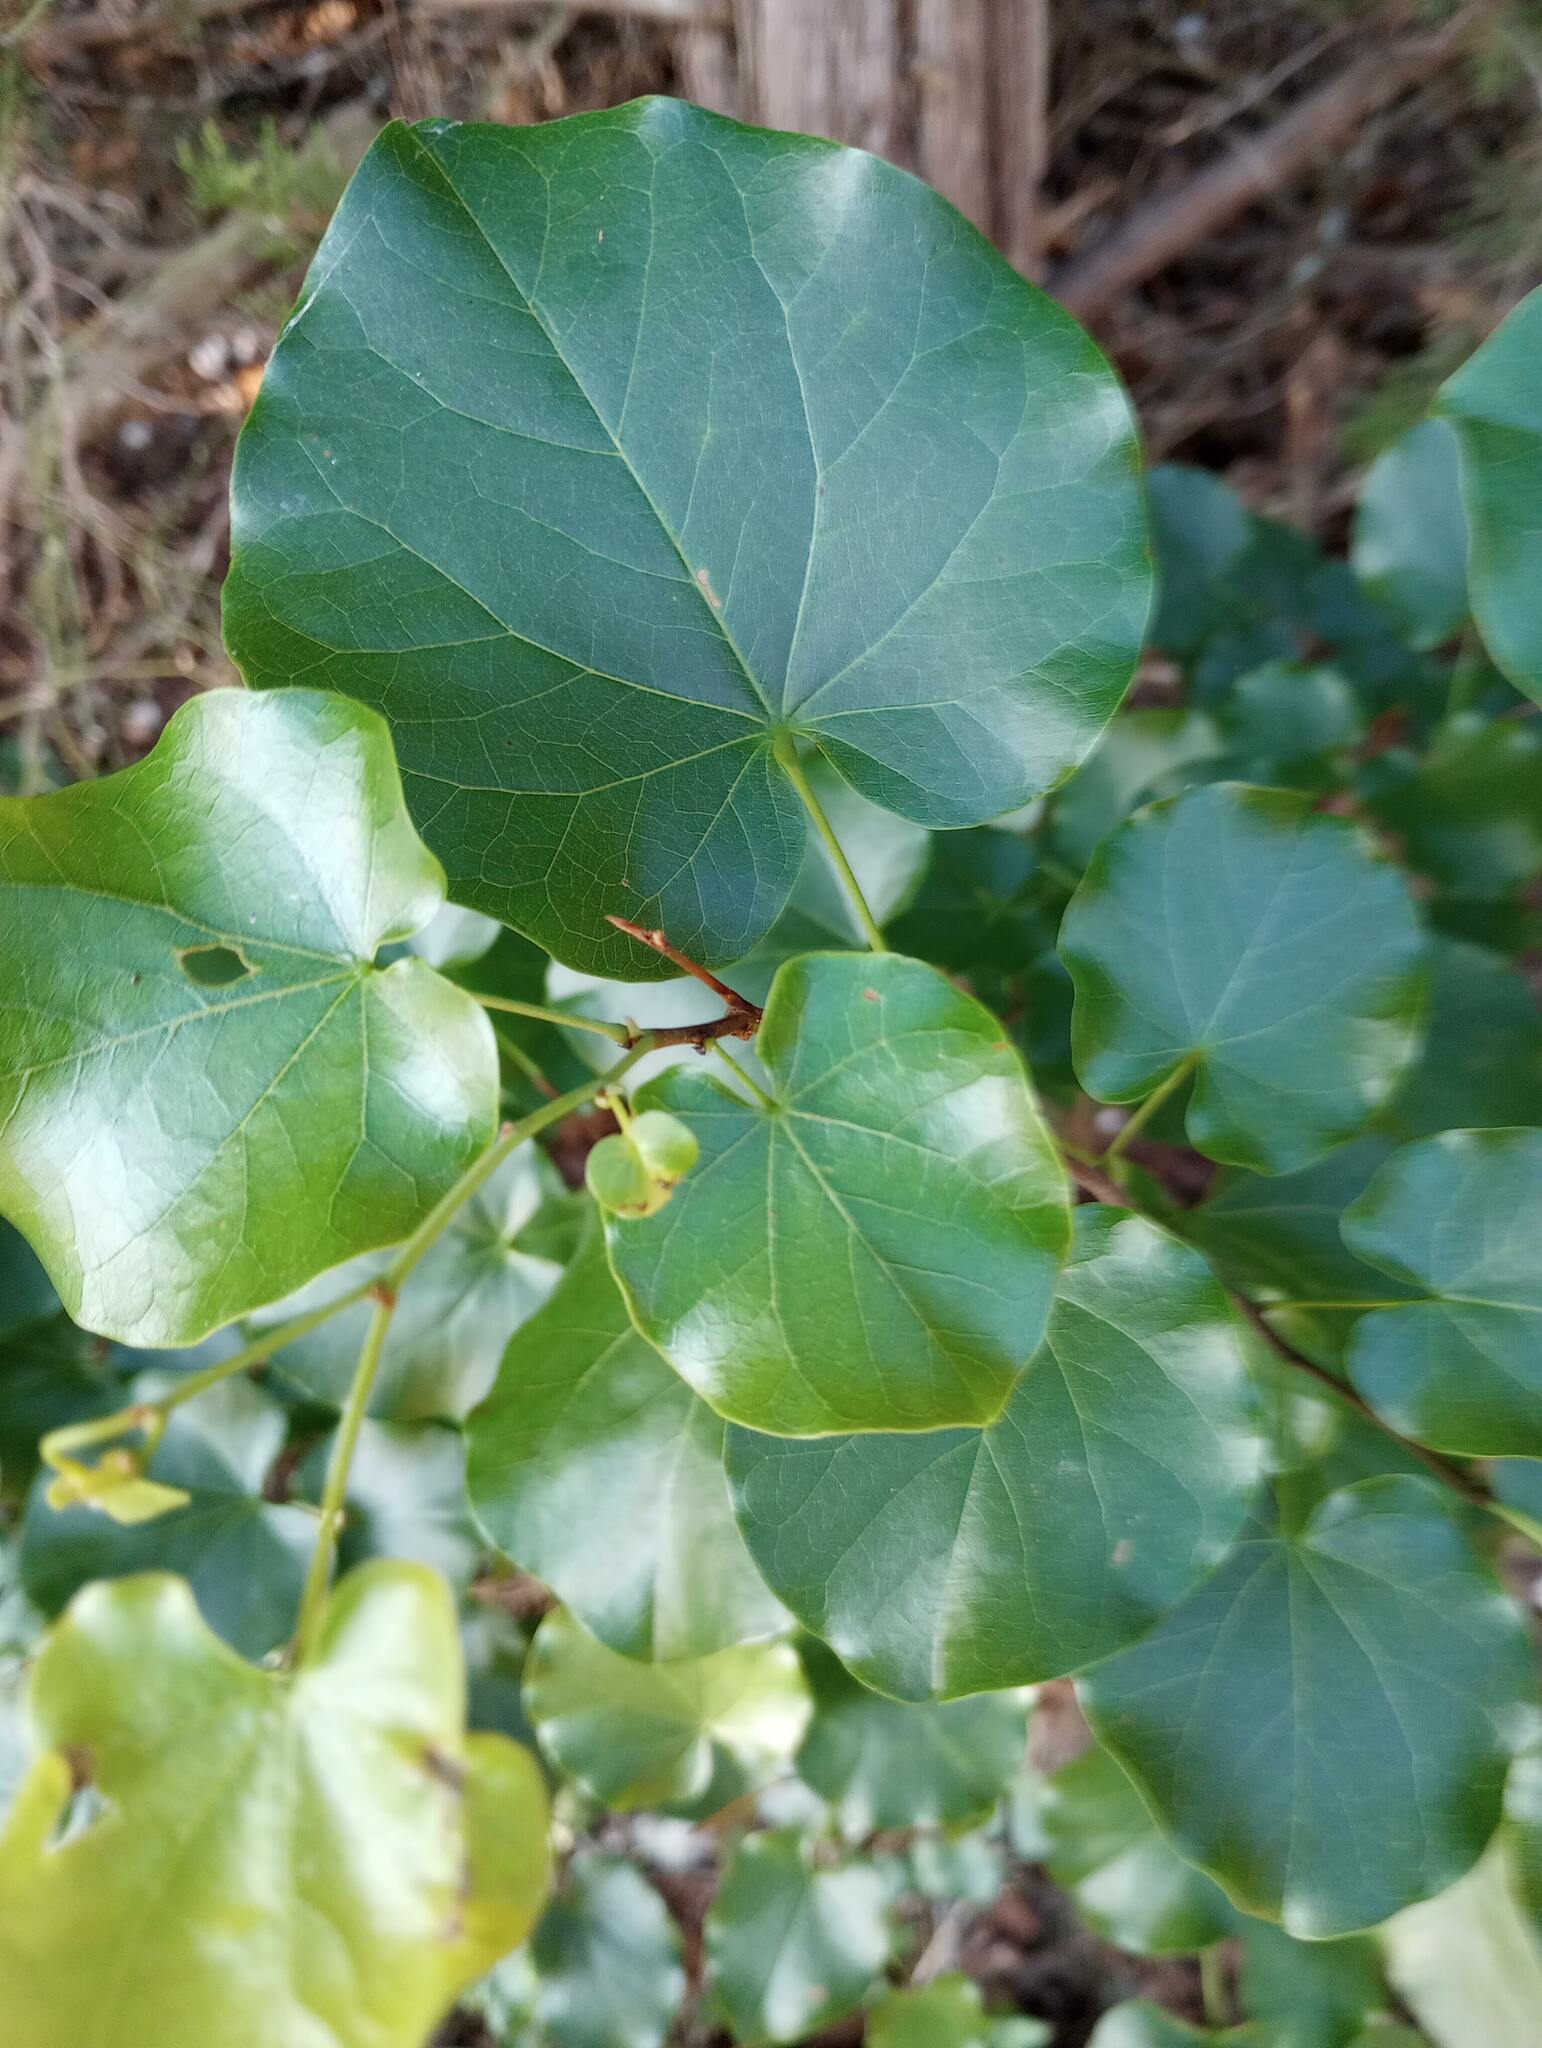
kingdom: Plantae
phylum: Tracheophyta
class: Magnoliopsida
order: Fabales
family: Fabaceae
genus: Cercis
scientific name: Cercis canadensis
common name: Eastern redbud
